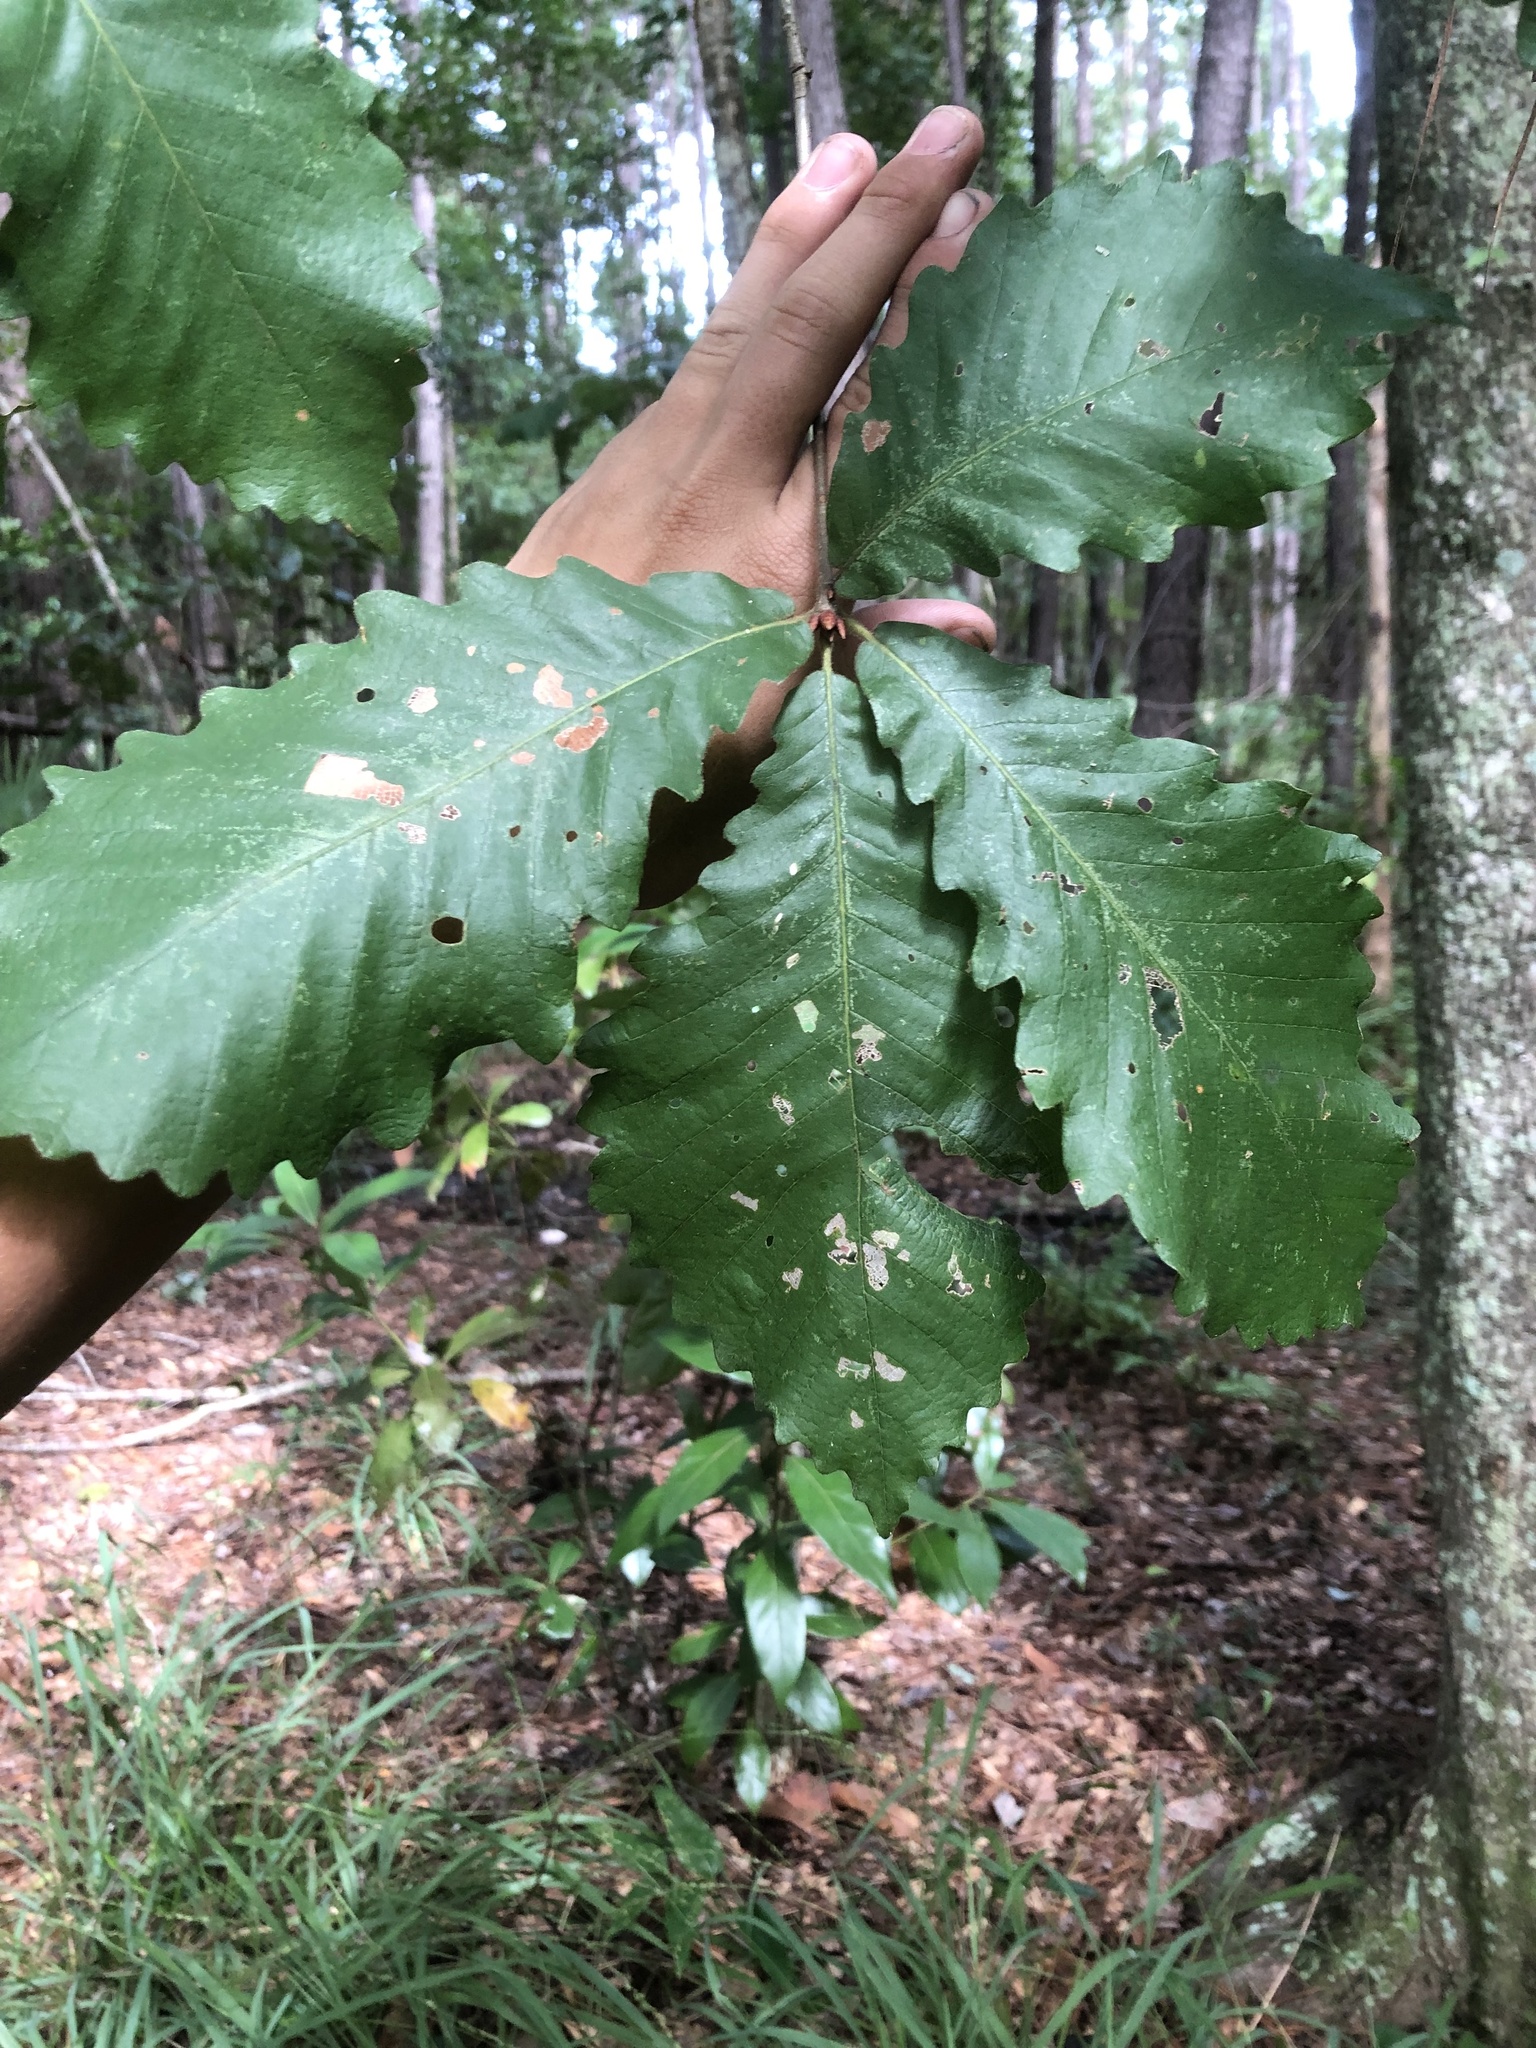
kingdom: Plantae
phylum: Tracheophyta
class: Magnoliopsida
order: Fagales
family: Fagaceae
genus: Quercus
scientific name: Quercus michauxii
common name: Swamp chestnut oak
